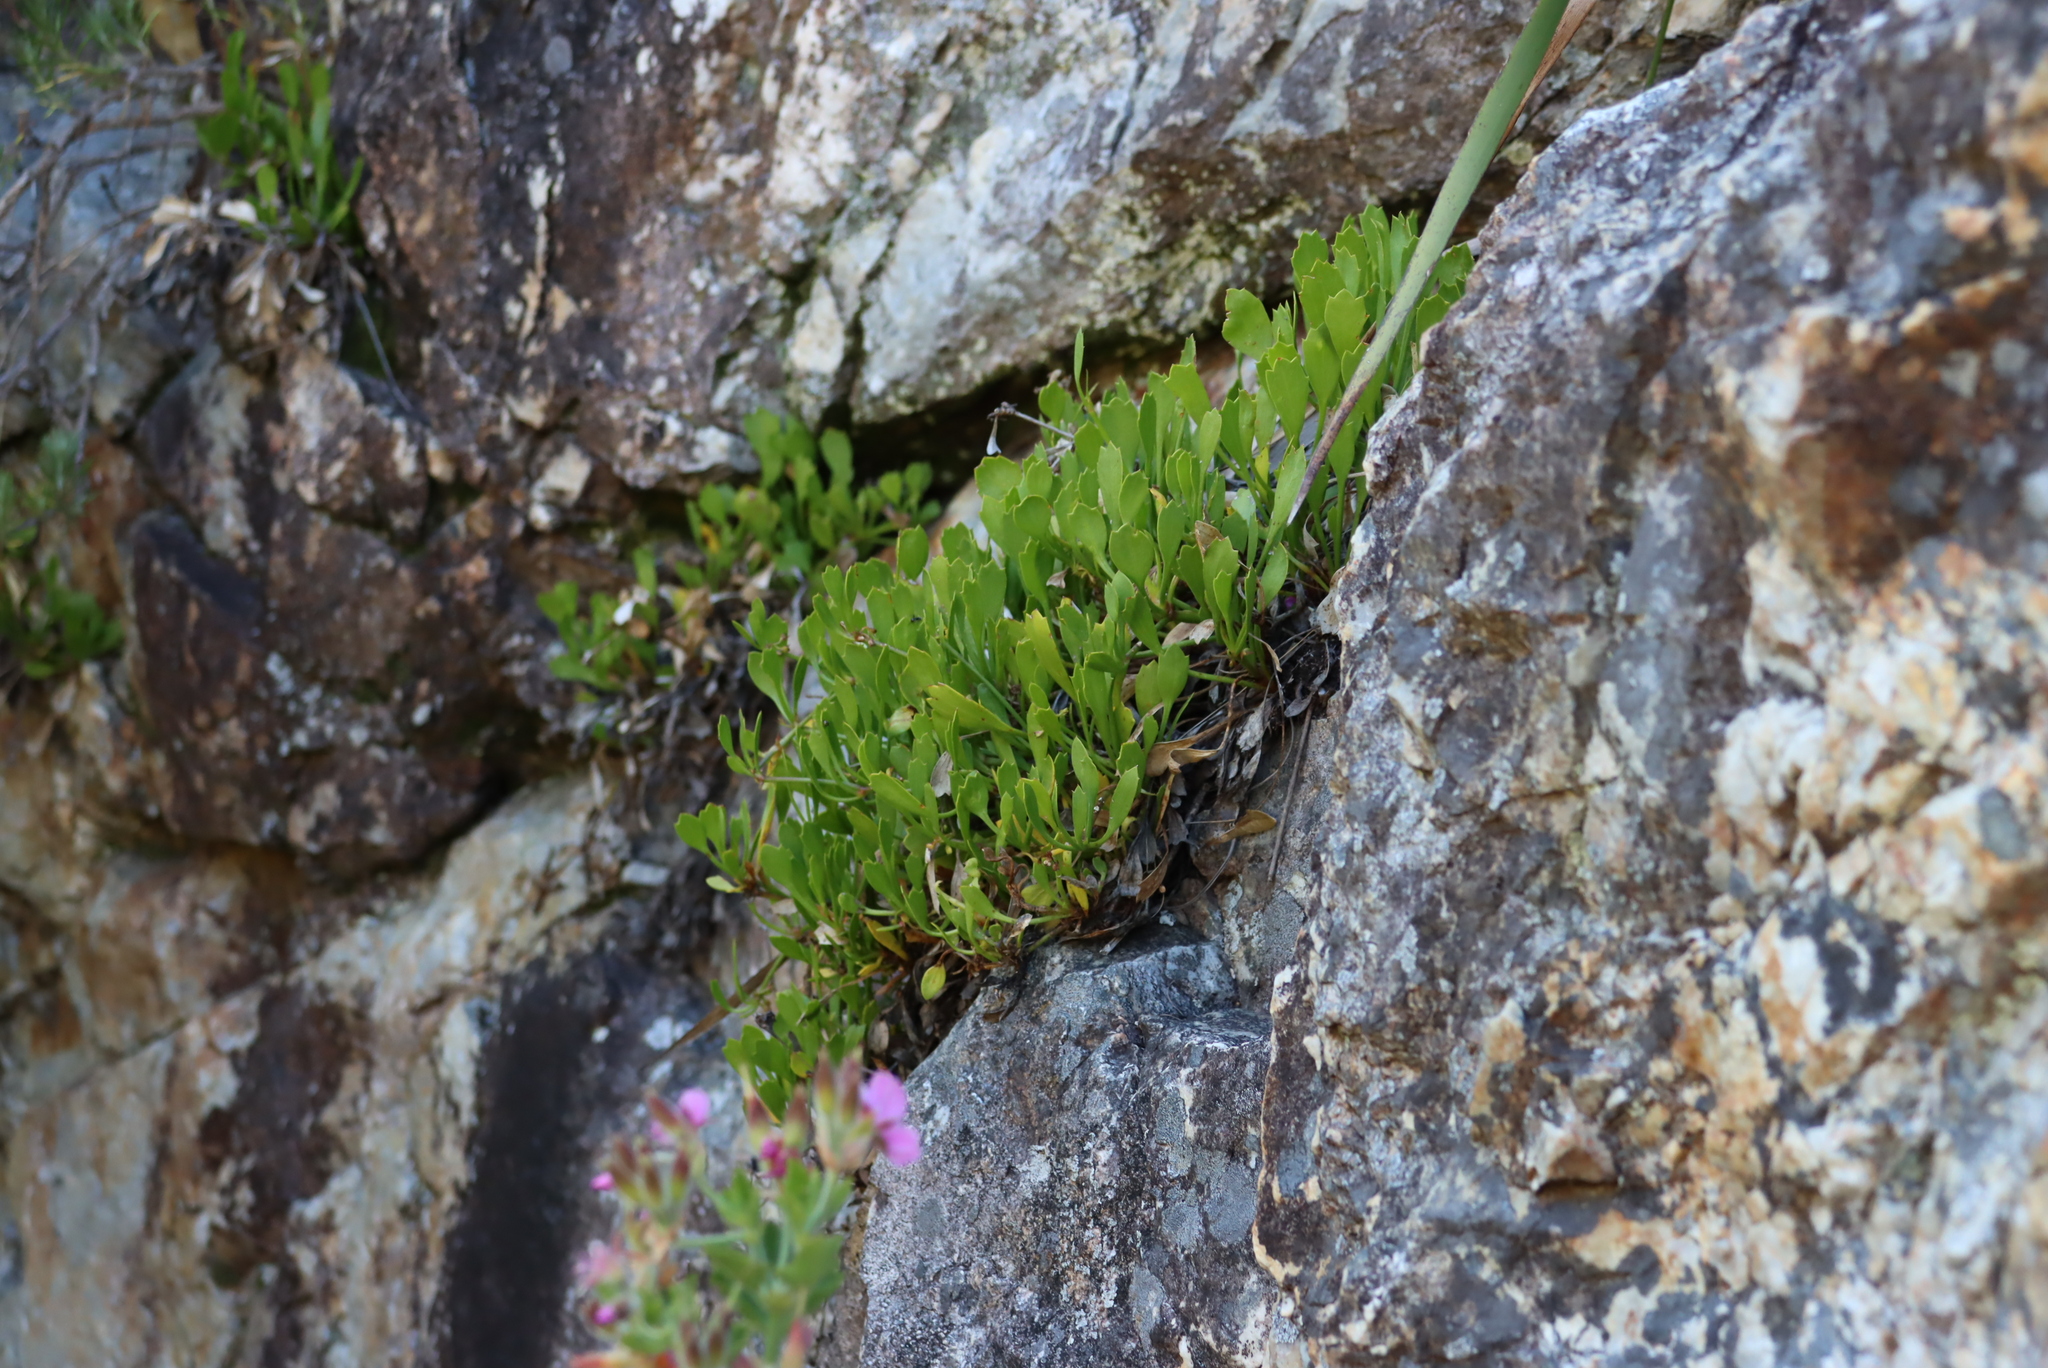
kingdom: Plantae
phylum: Tracheophyta
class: Magnoliopsida
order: Apiales
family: Apiaceae
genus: Centella
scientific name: Centella triloba
